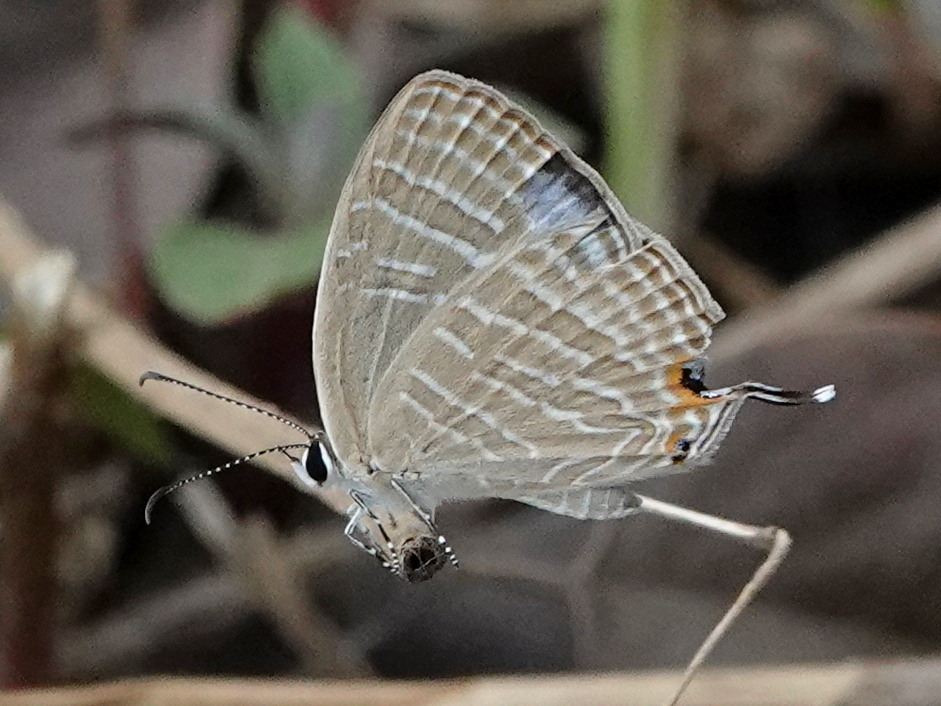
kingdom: Animalia
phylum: Arthropoda
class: Insecta
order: Lepidoptera
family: Lycaenidae
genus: Jamides
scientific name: Jamides celeno
